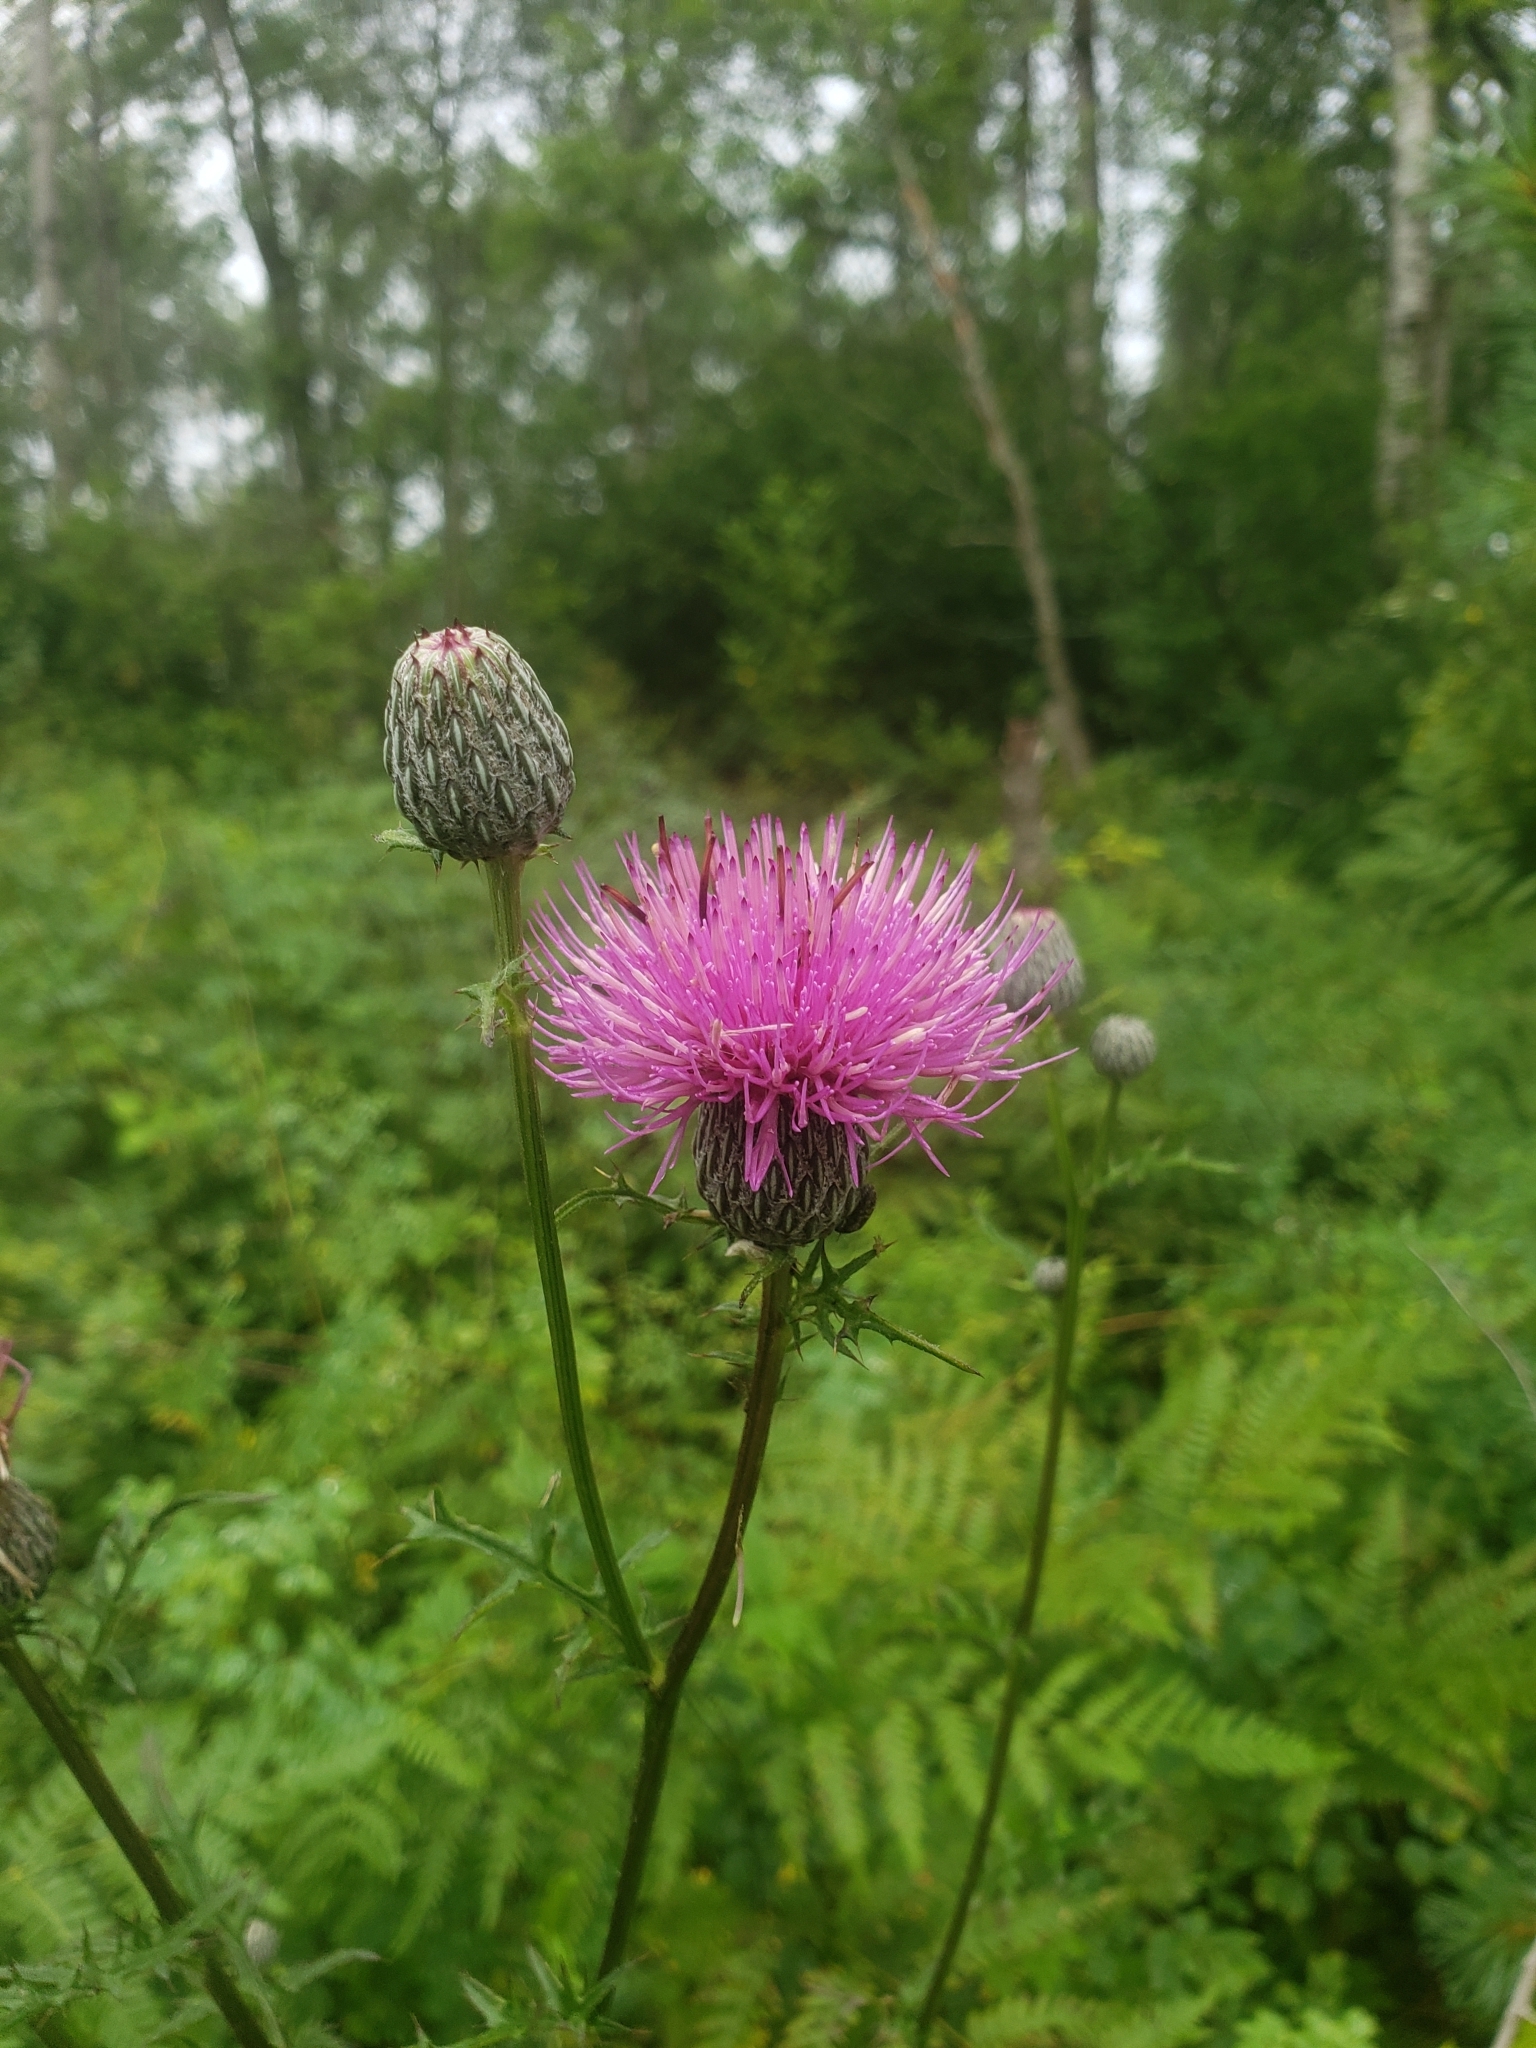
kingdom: Plantae
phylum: Tracheophyta
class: Magnoliopsida
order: Asterales
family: Asteraceae
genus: Cirsium
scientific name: Cirsium muticum
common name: Dunce-nettle
